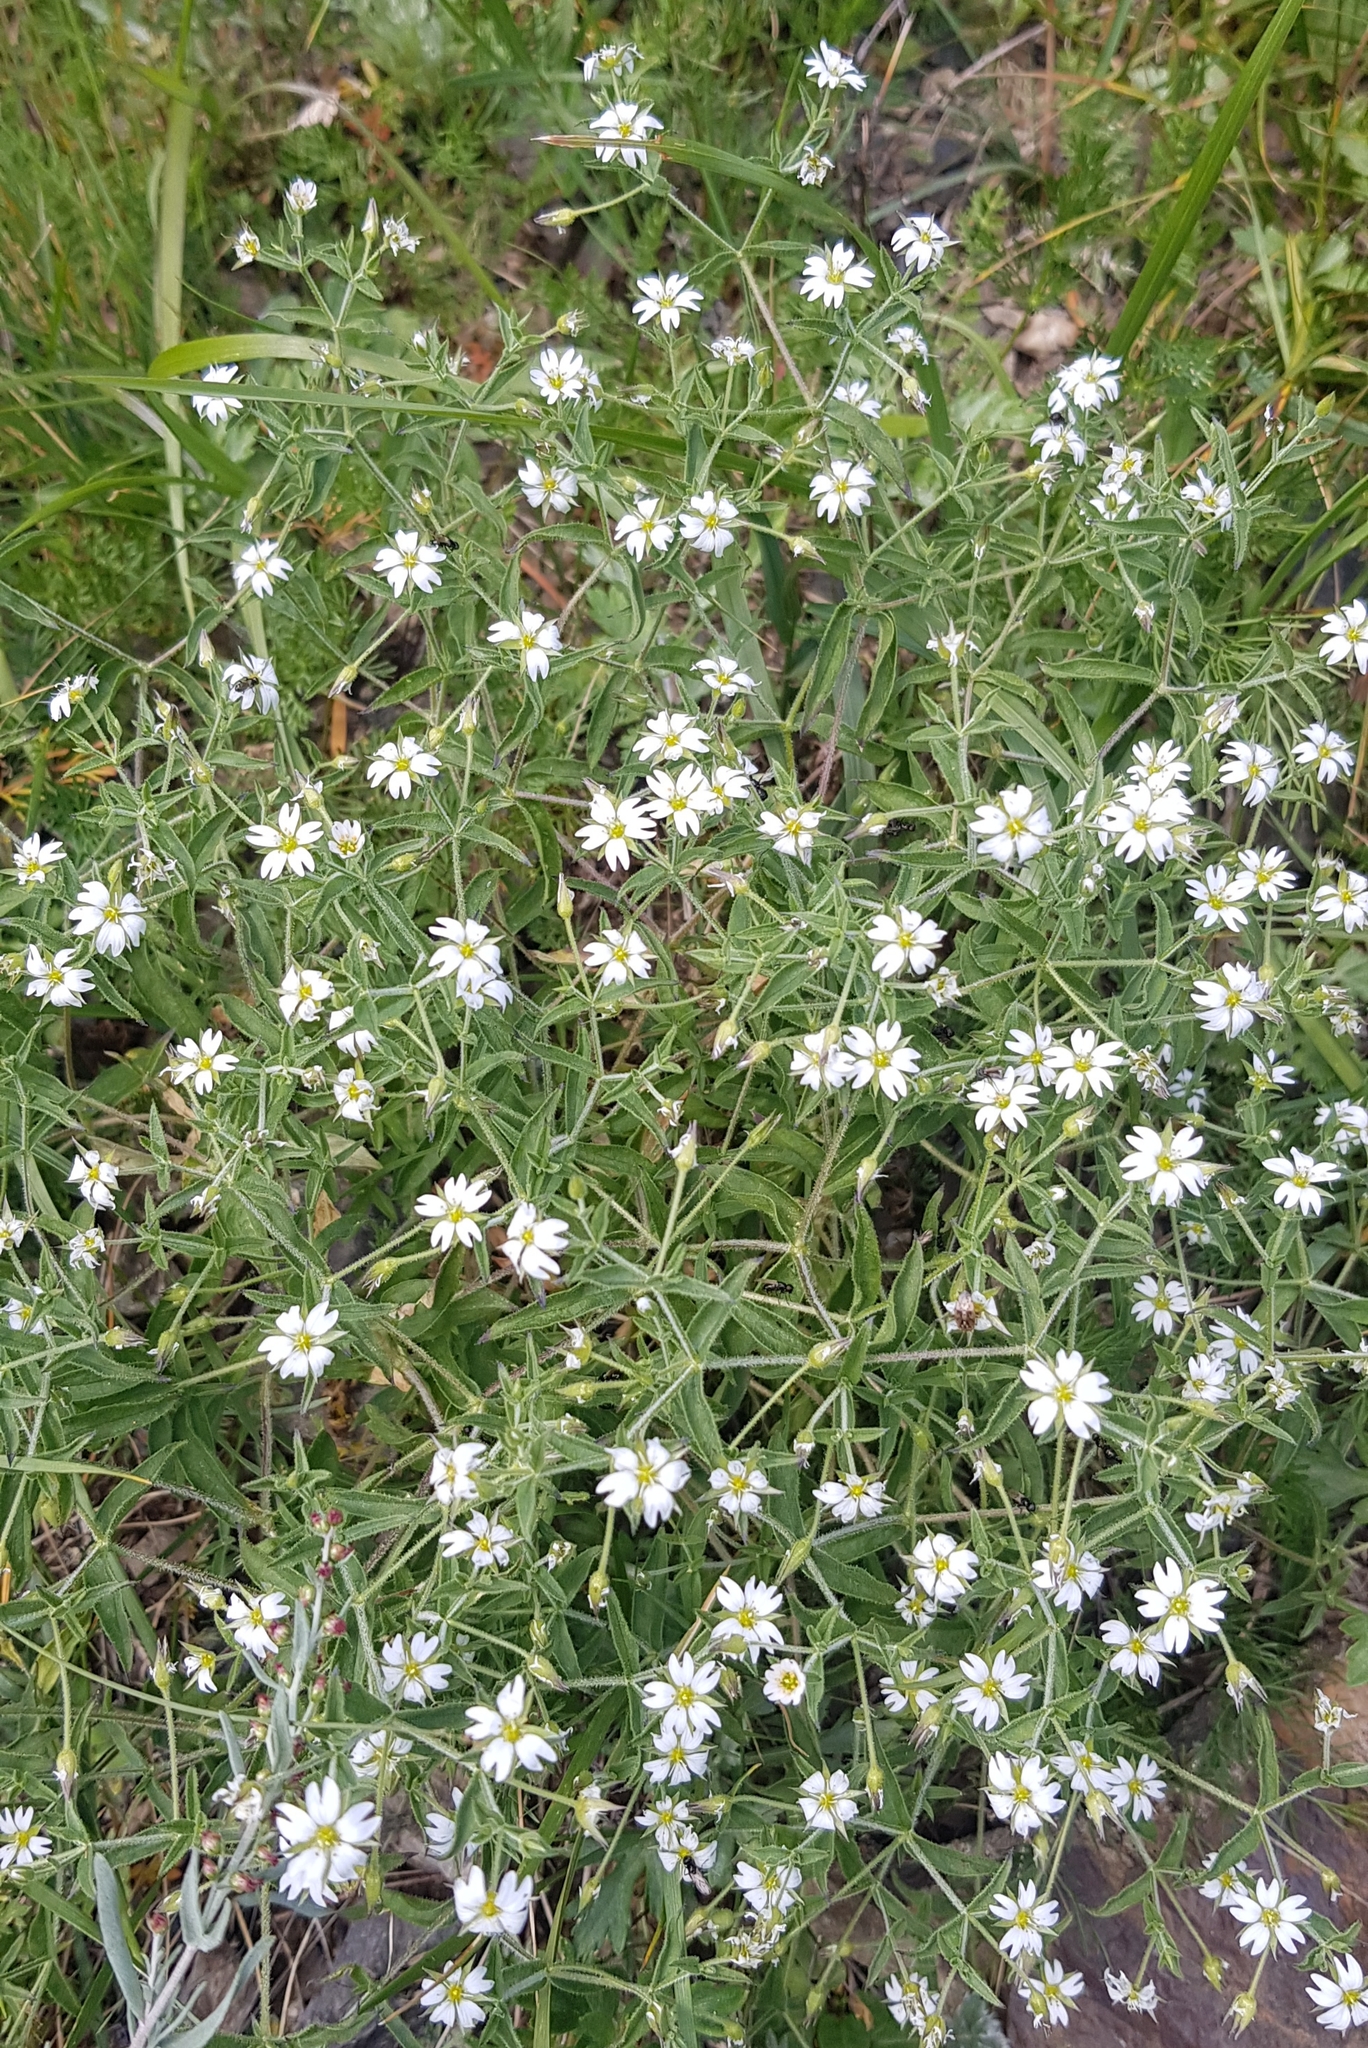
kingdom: Plantae
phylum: Tracheophyta
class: Magnoliopsida
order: Caryophyllales
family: Caryophyllaceae
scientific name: Caryophyllaceae
